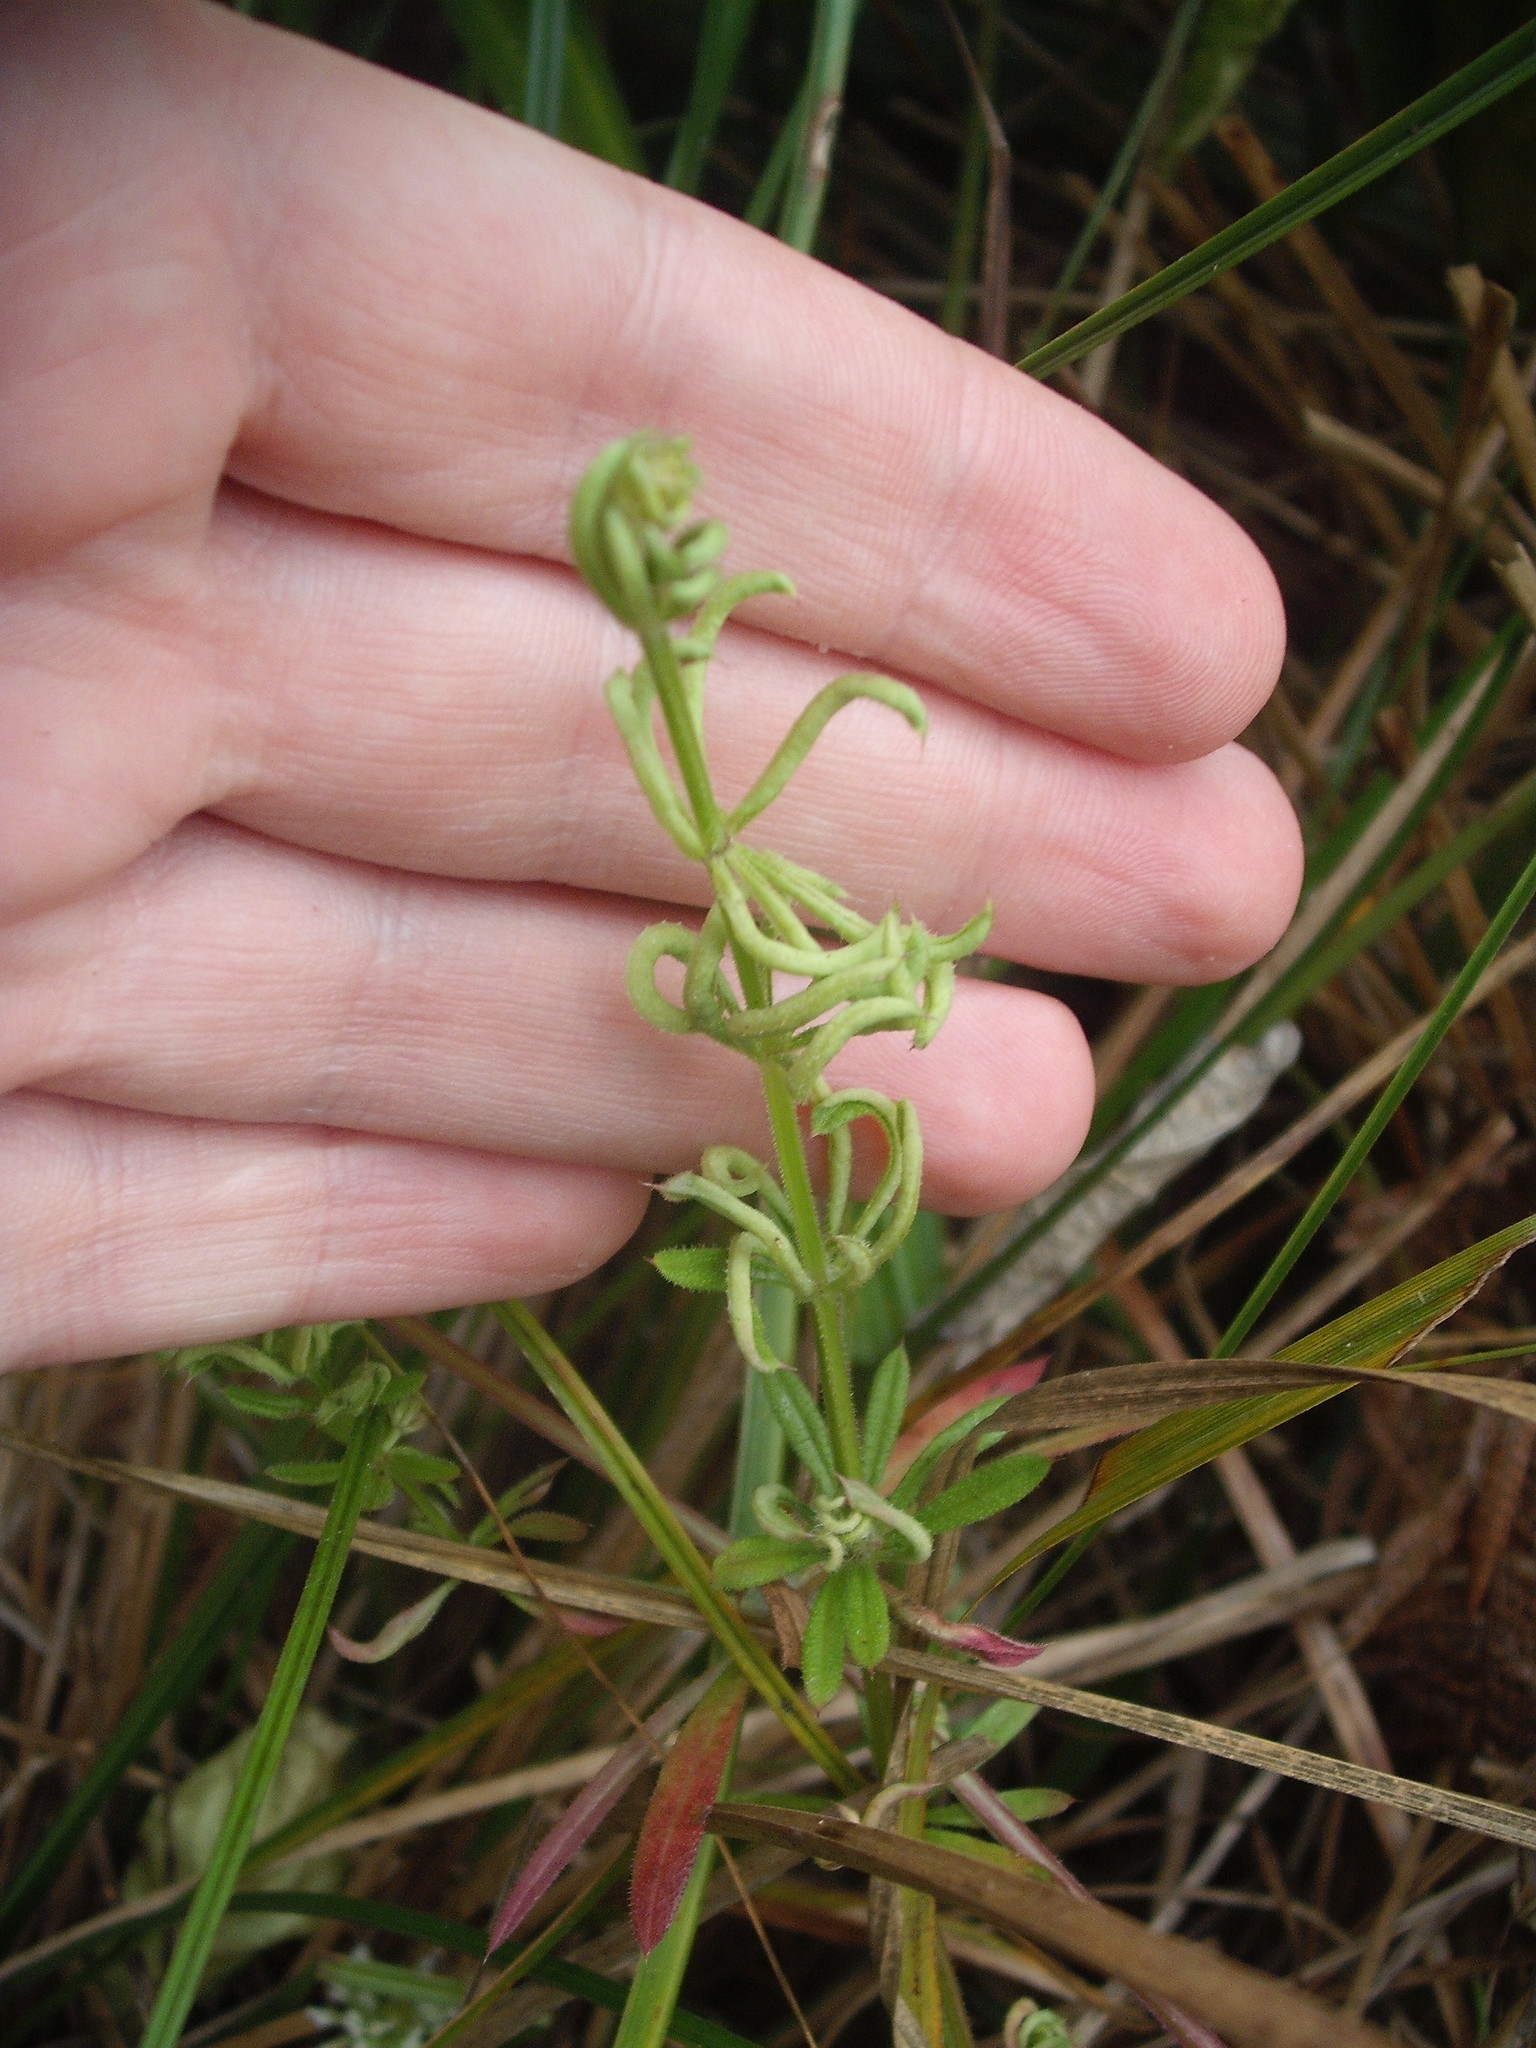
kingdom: Animalia
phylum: Arthropoda
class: Arachnida
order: Trombidiformes
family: Eriophyidae
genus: Cecidophyes
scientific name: Cecidophyes rouhollahi
